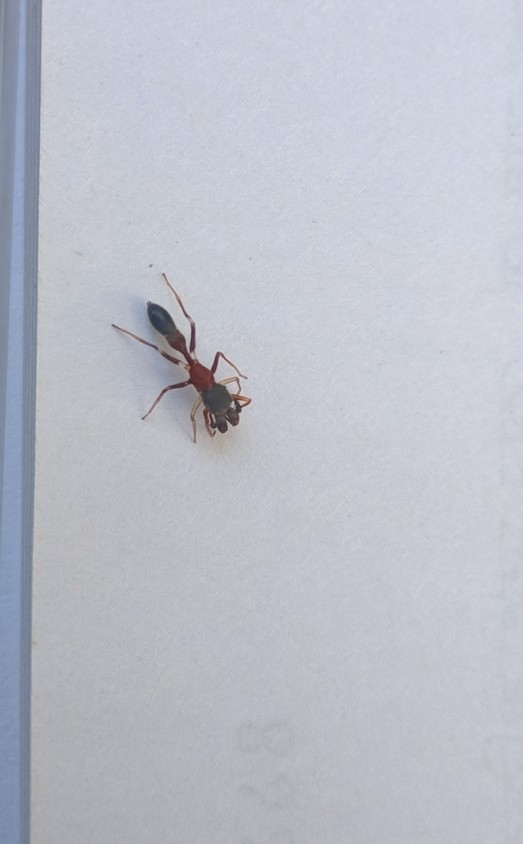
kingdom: Animalia
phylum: Arthropoda
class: Arachnida
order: Araneae
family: Salticidae
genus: Myrmarachne
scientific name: Myrmarachne melanocephala
